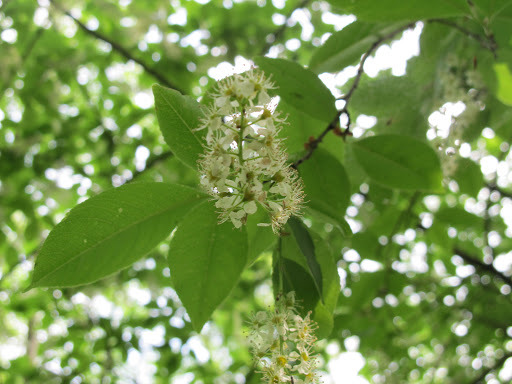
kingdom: Plantae
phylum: Tracheophyta
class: Magnoliopsida
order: Rosales
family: Rosaceae
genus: Prunus
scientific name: Prunus serotina
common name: Black cherry
